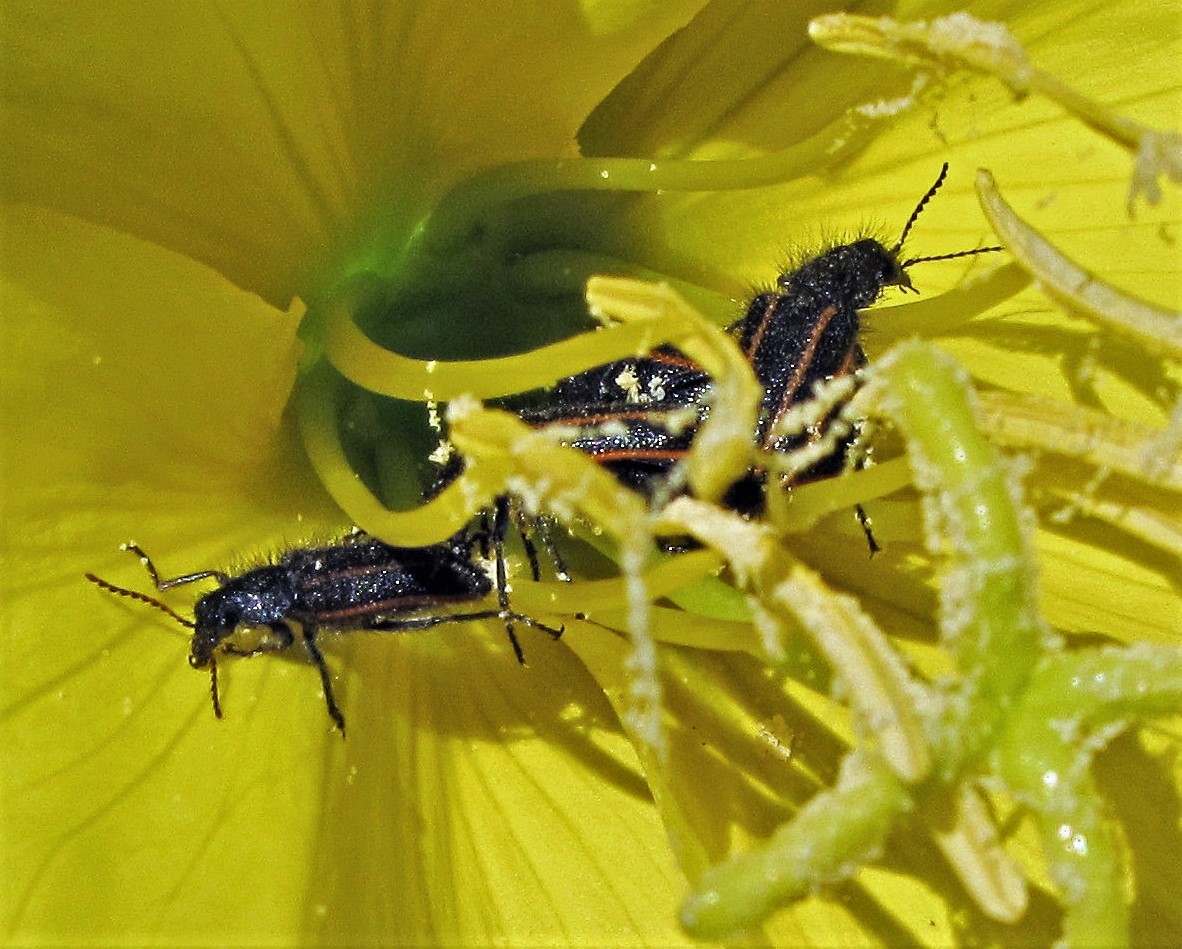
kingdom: Animalia
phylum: Arthropoda
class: Insecta
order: Coleoptera
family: Melyridae
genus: Astylus
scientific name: Astylus
